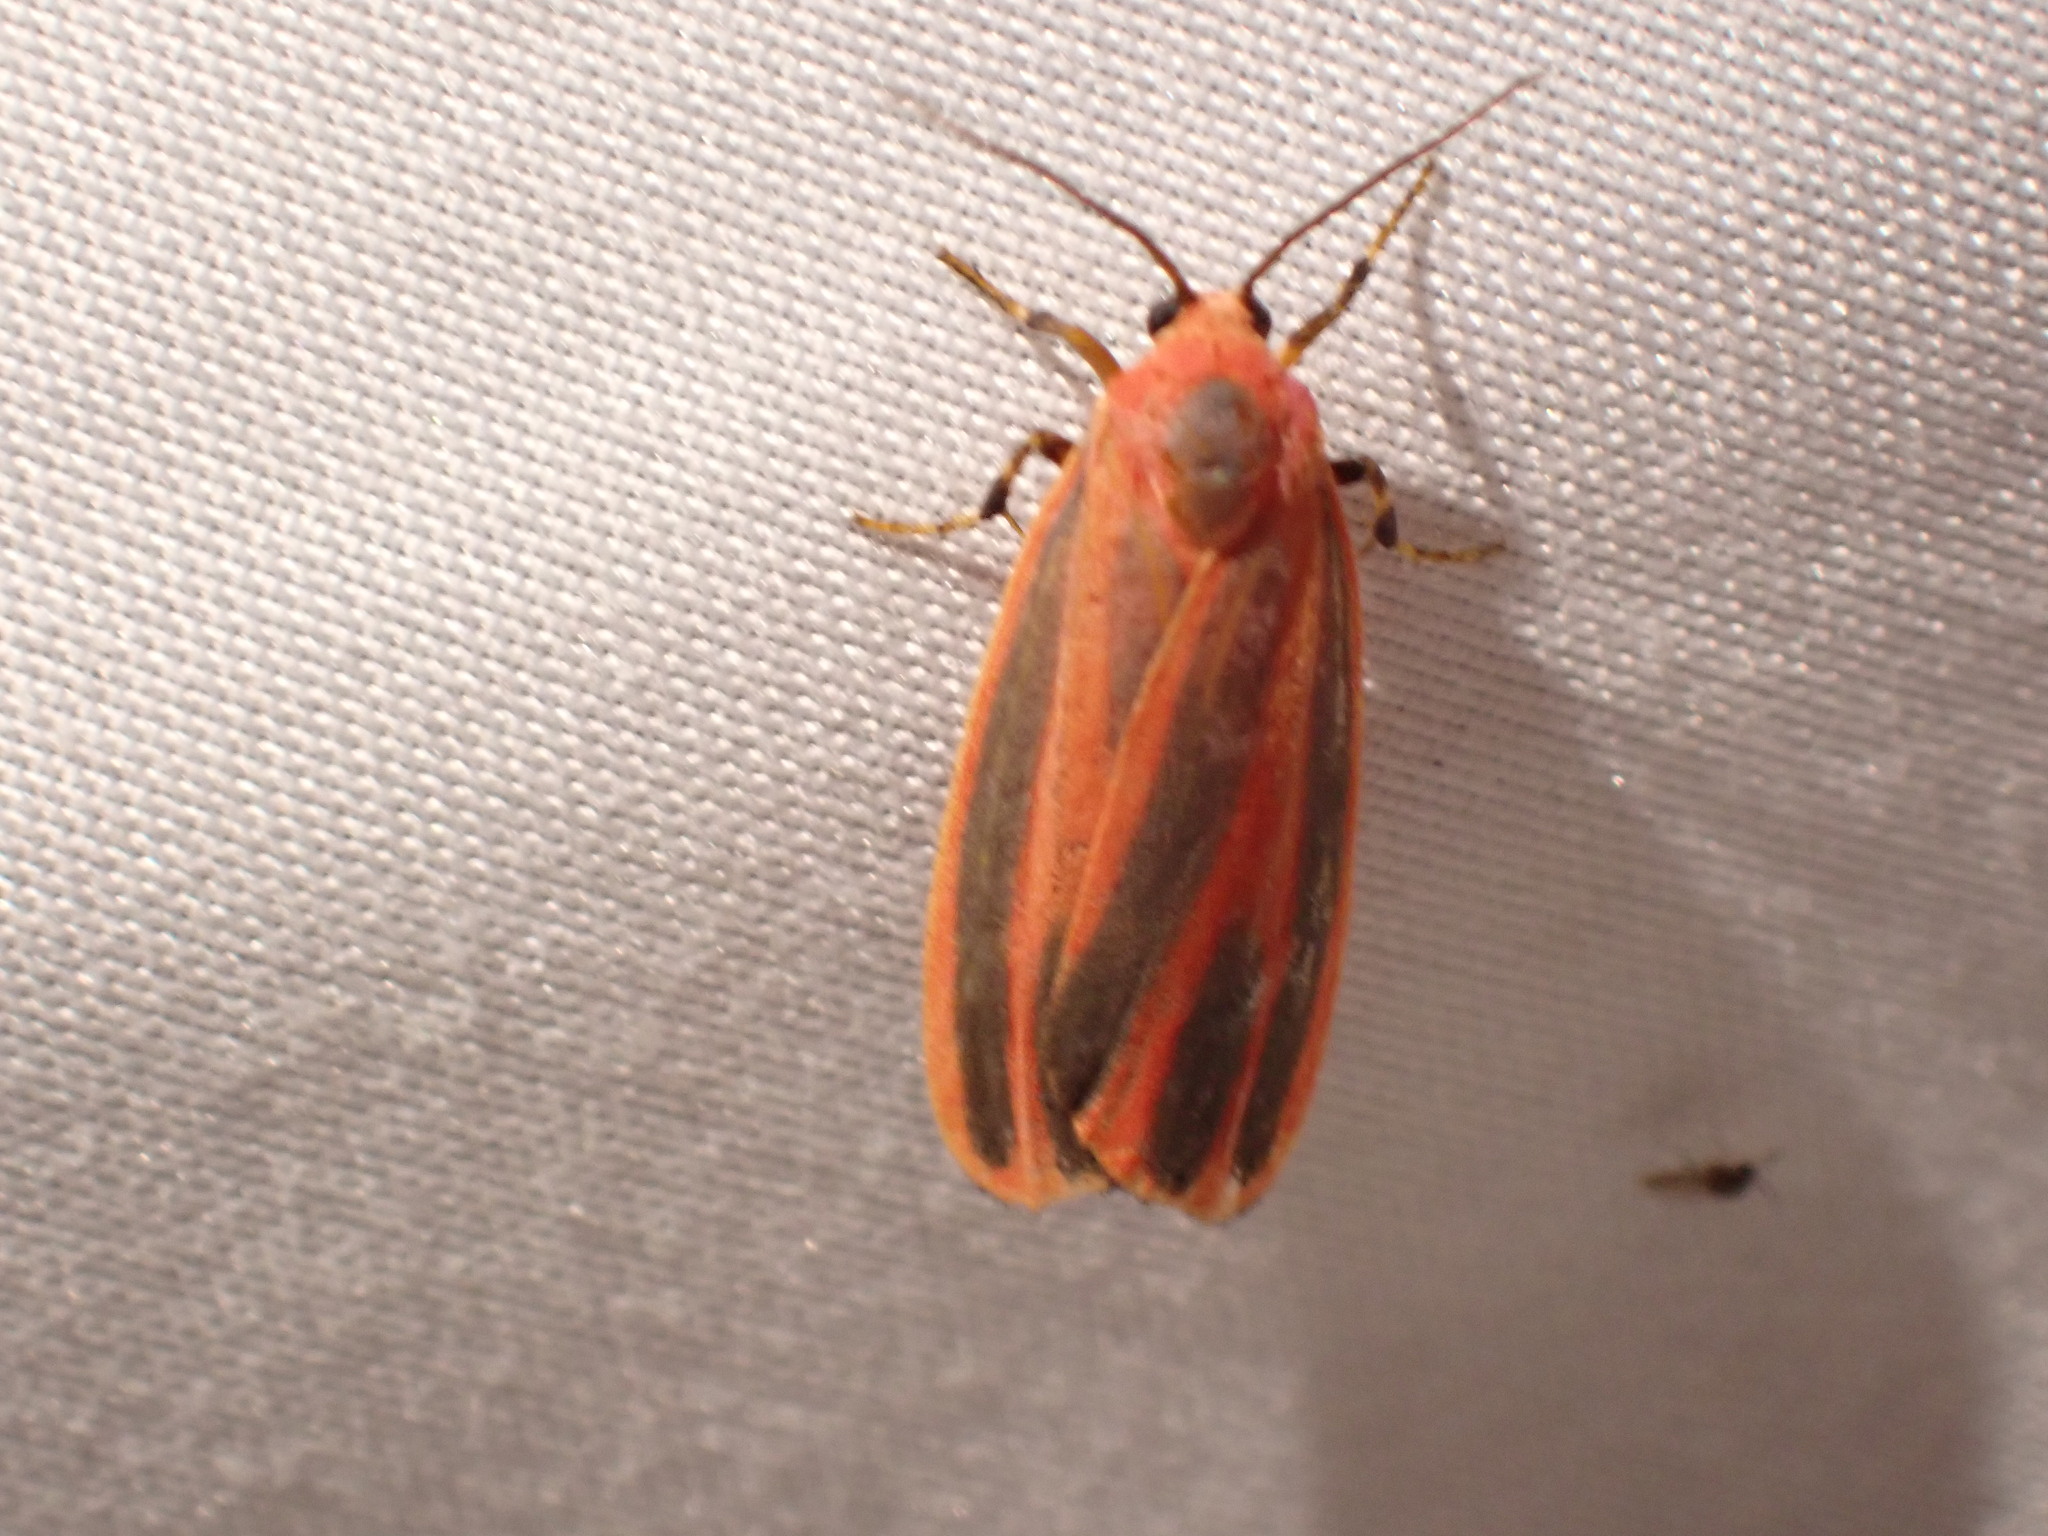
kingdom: Animalia
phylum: Arthropoda
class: Insecta
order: Lepidoptera
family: Erebidae
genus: Hypoprepia
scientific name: Hypoprepia miniata
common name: Scarlet-winged lichen moth
